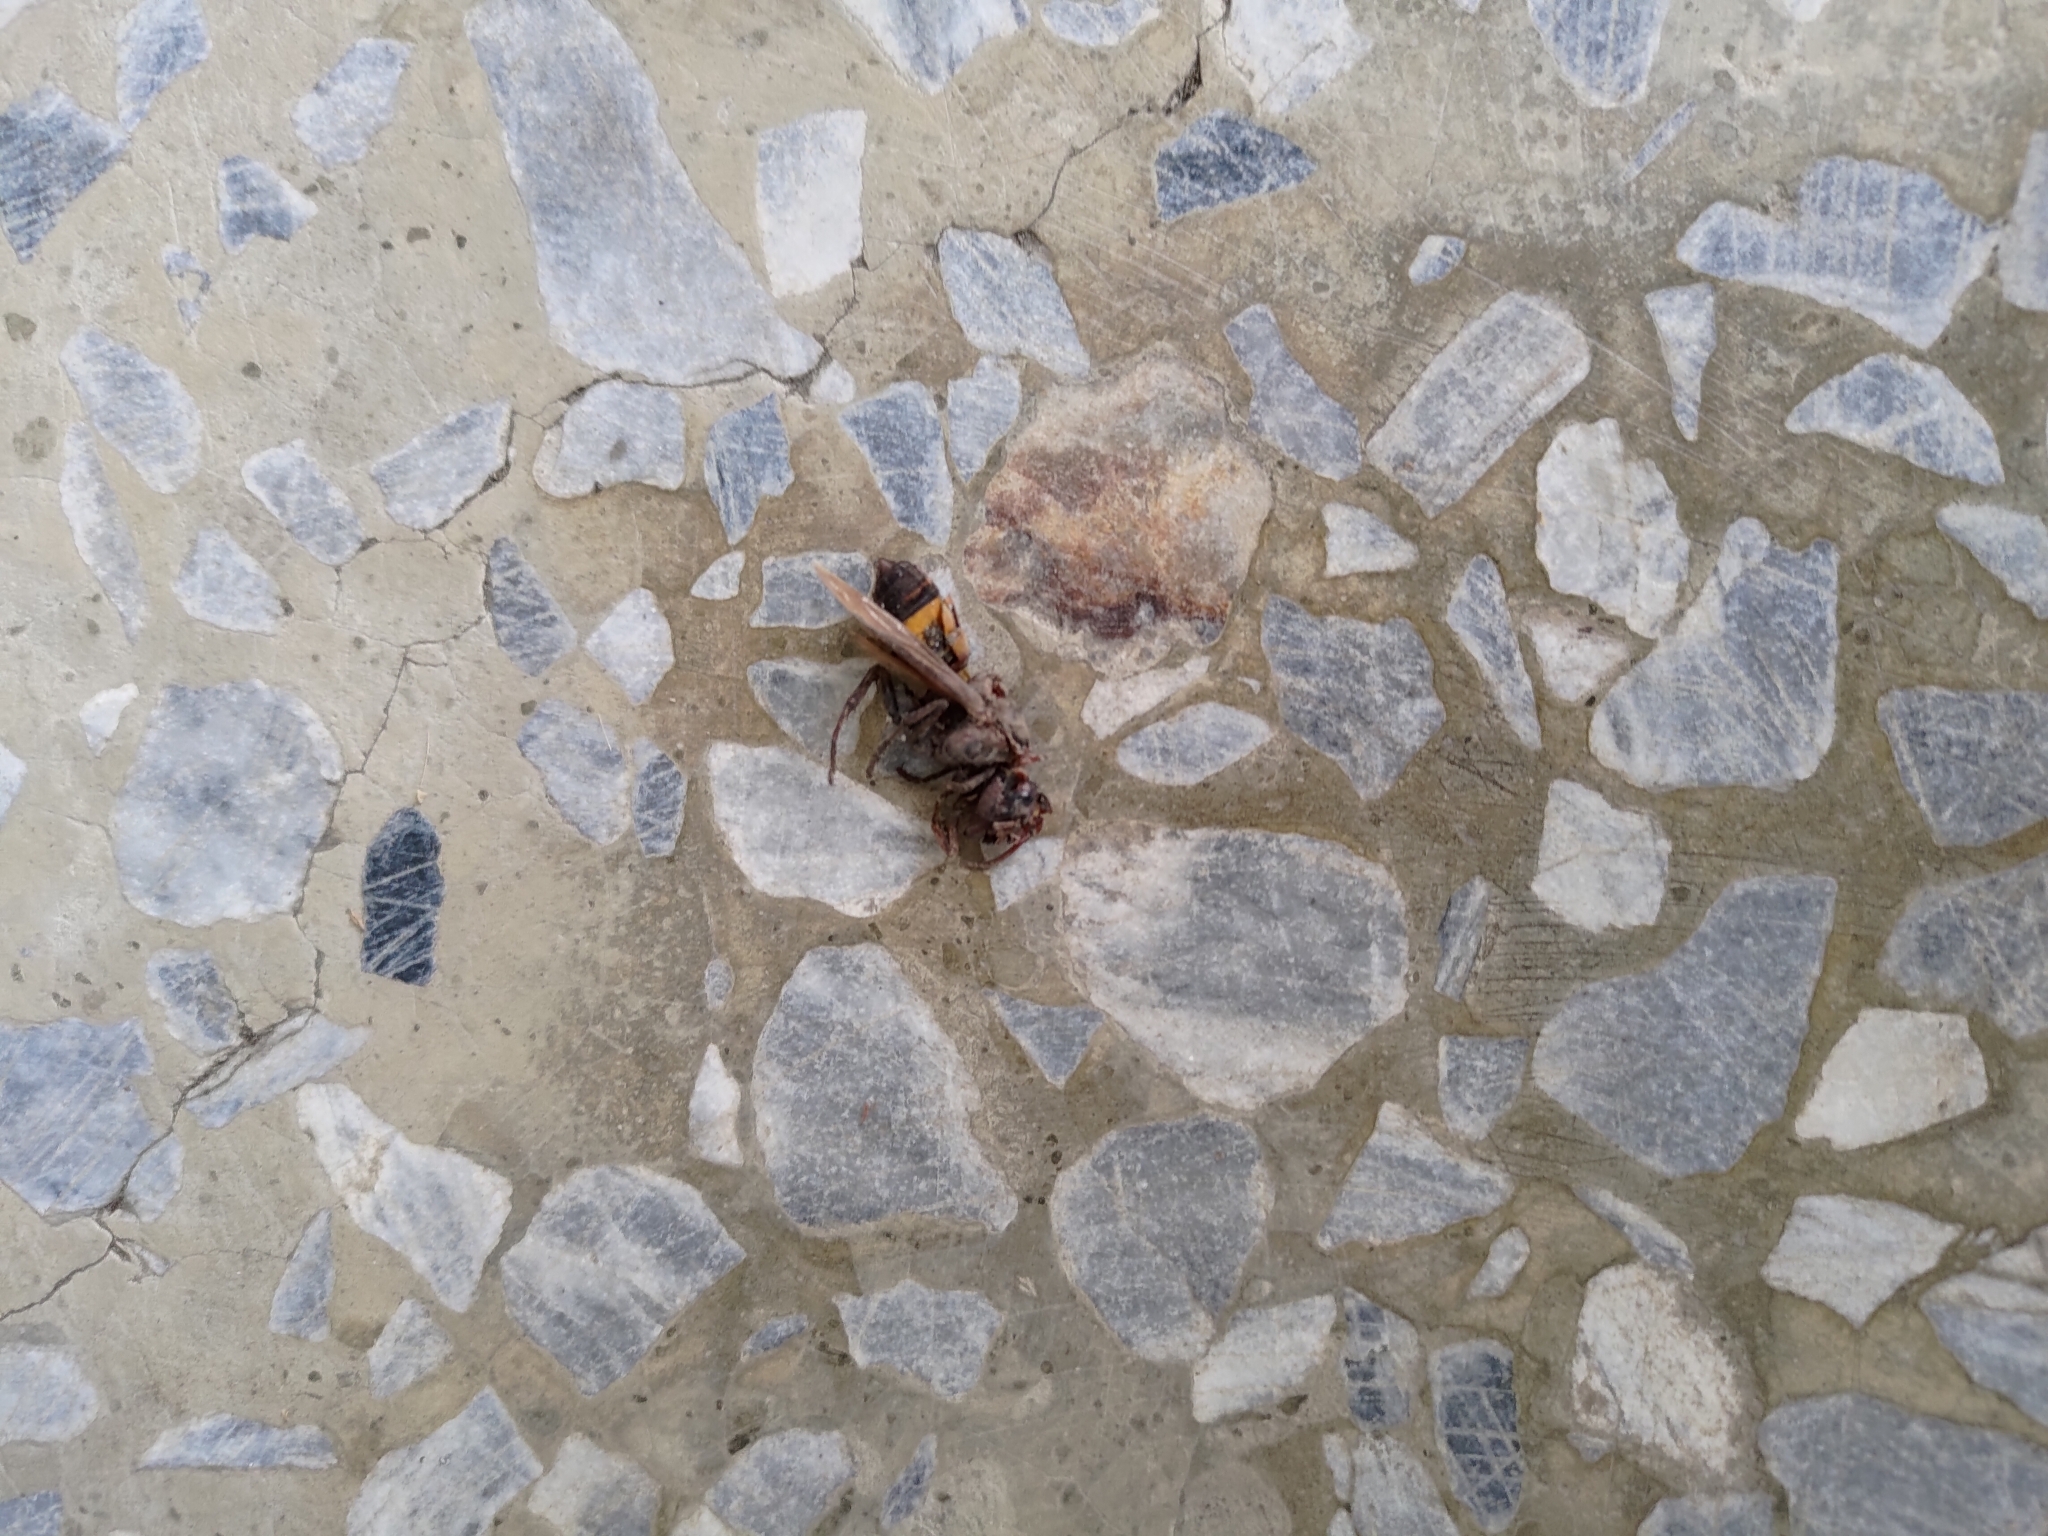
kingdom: Animalia
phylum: Arthropoda
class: Insecta
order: Hymenoptera
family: Vespidae
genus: Vespa
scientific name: Vespa affinis
